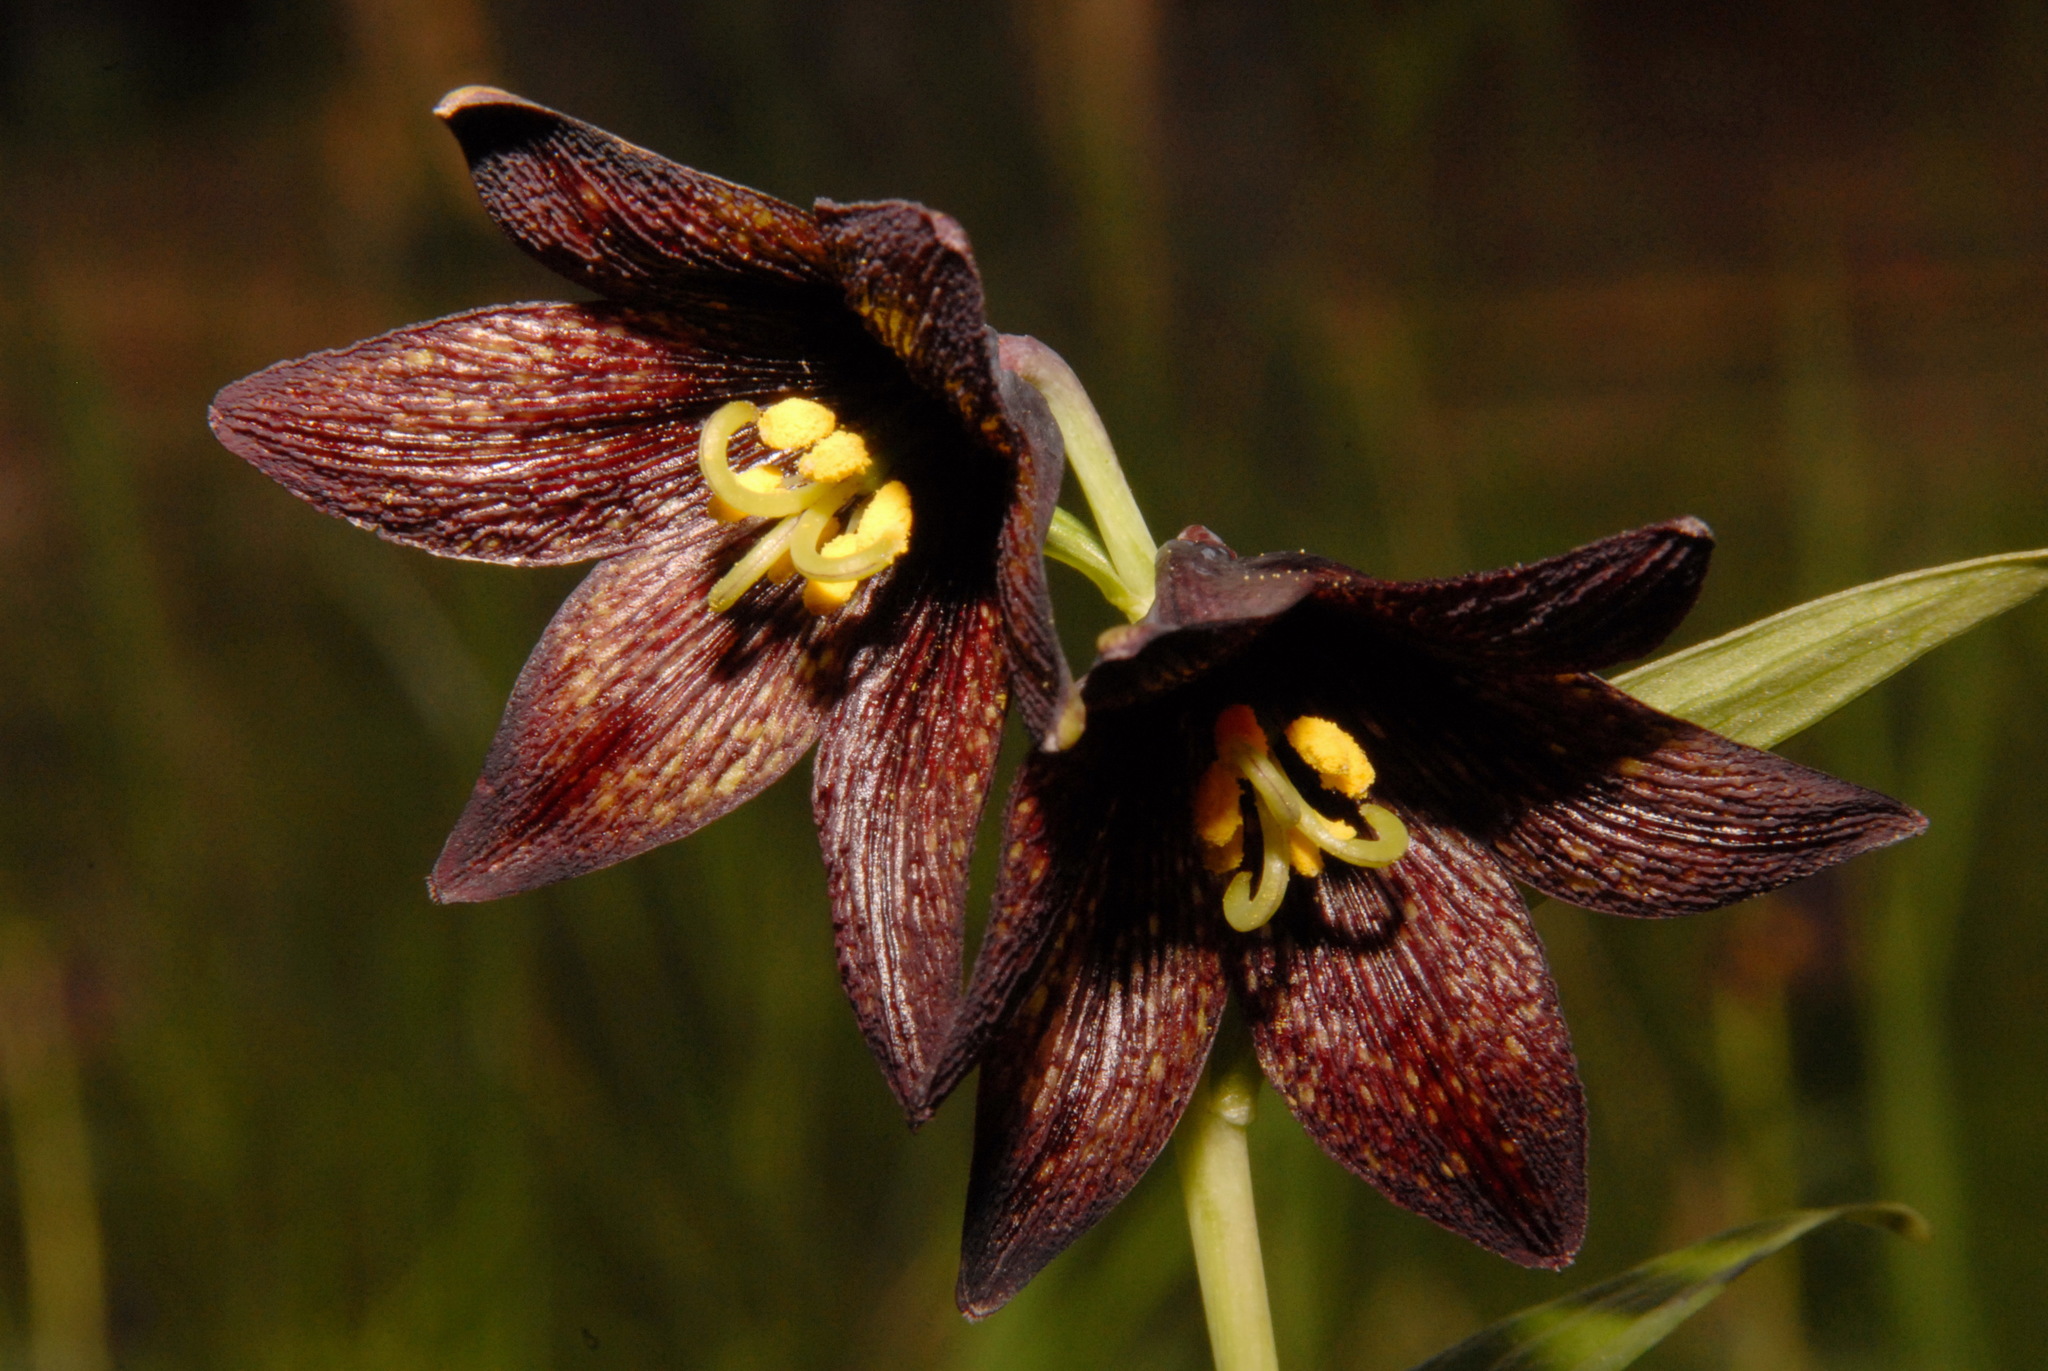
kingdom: Plantae
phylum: Tracheophyta
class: Liliopsida
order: Liliales
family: Liliaceae
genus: Fritillaria
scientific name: Fritillaria camschatcensis
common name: Kamchatka fritillary
